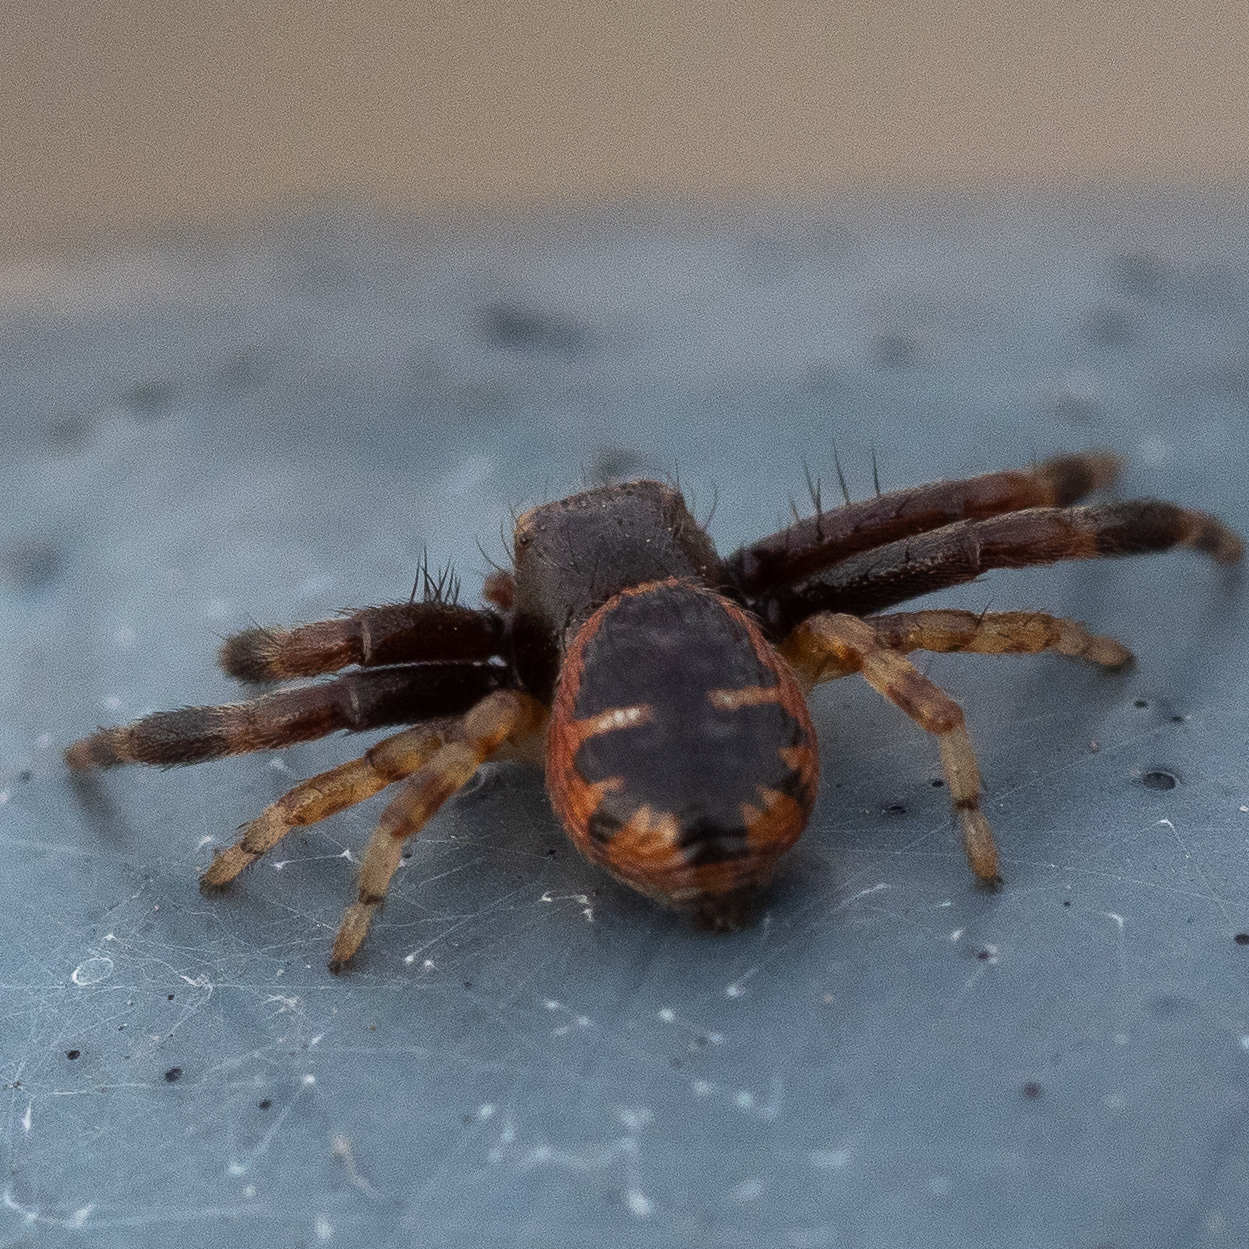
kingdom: Animalia
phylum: Arthropoda
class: Arachnida
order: Araneae
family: Thomisidae
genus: Synema
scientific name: Synema globosum
